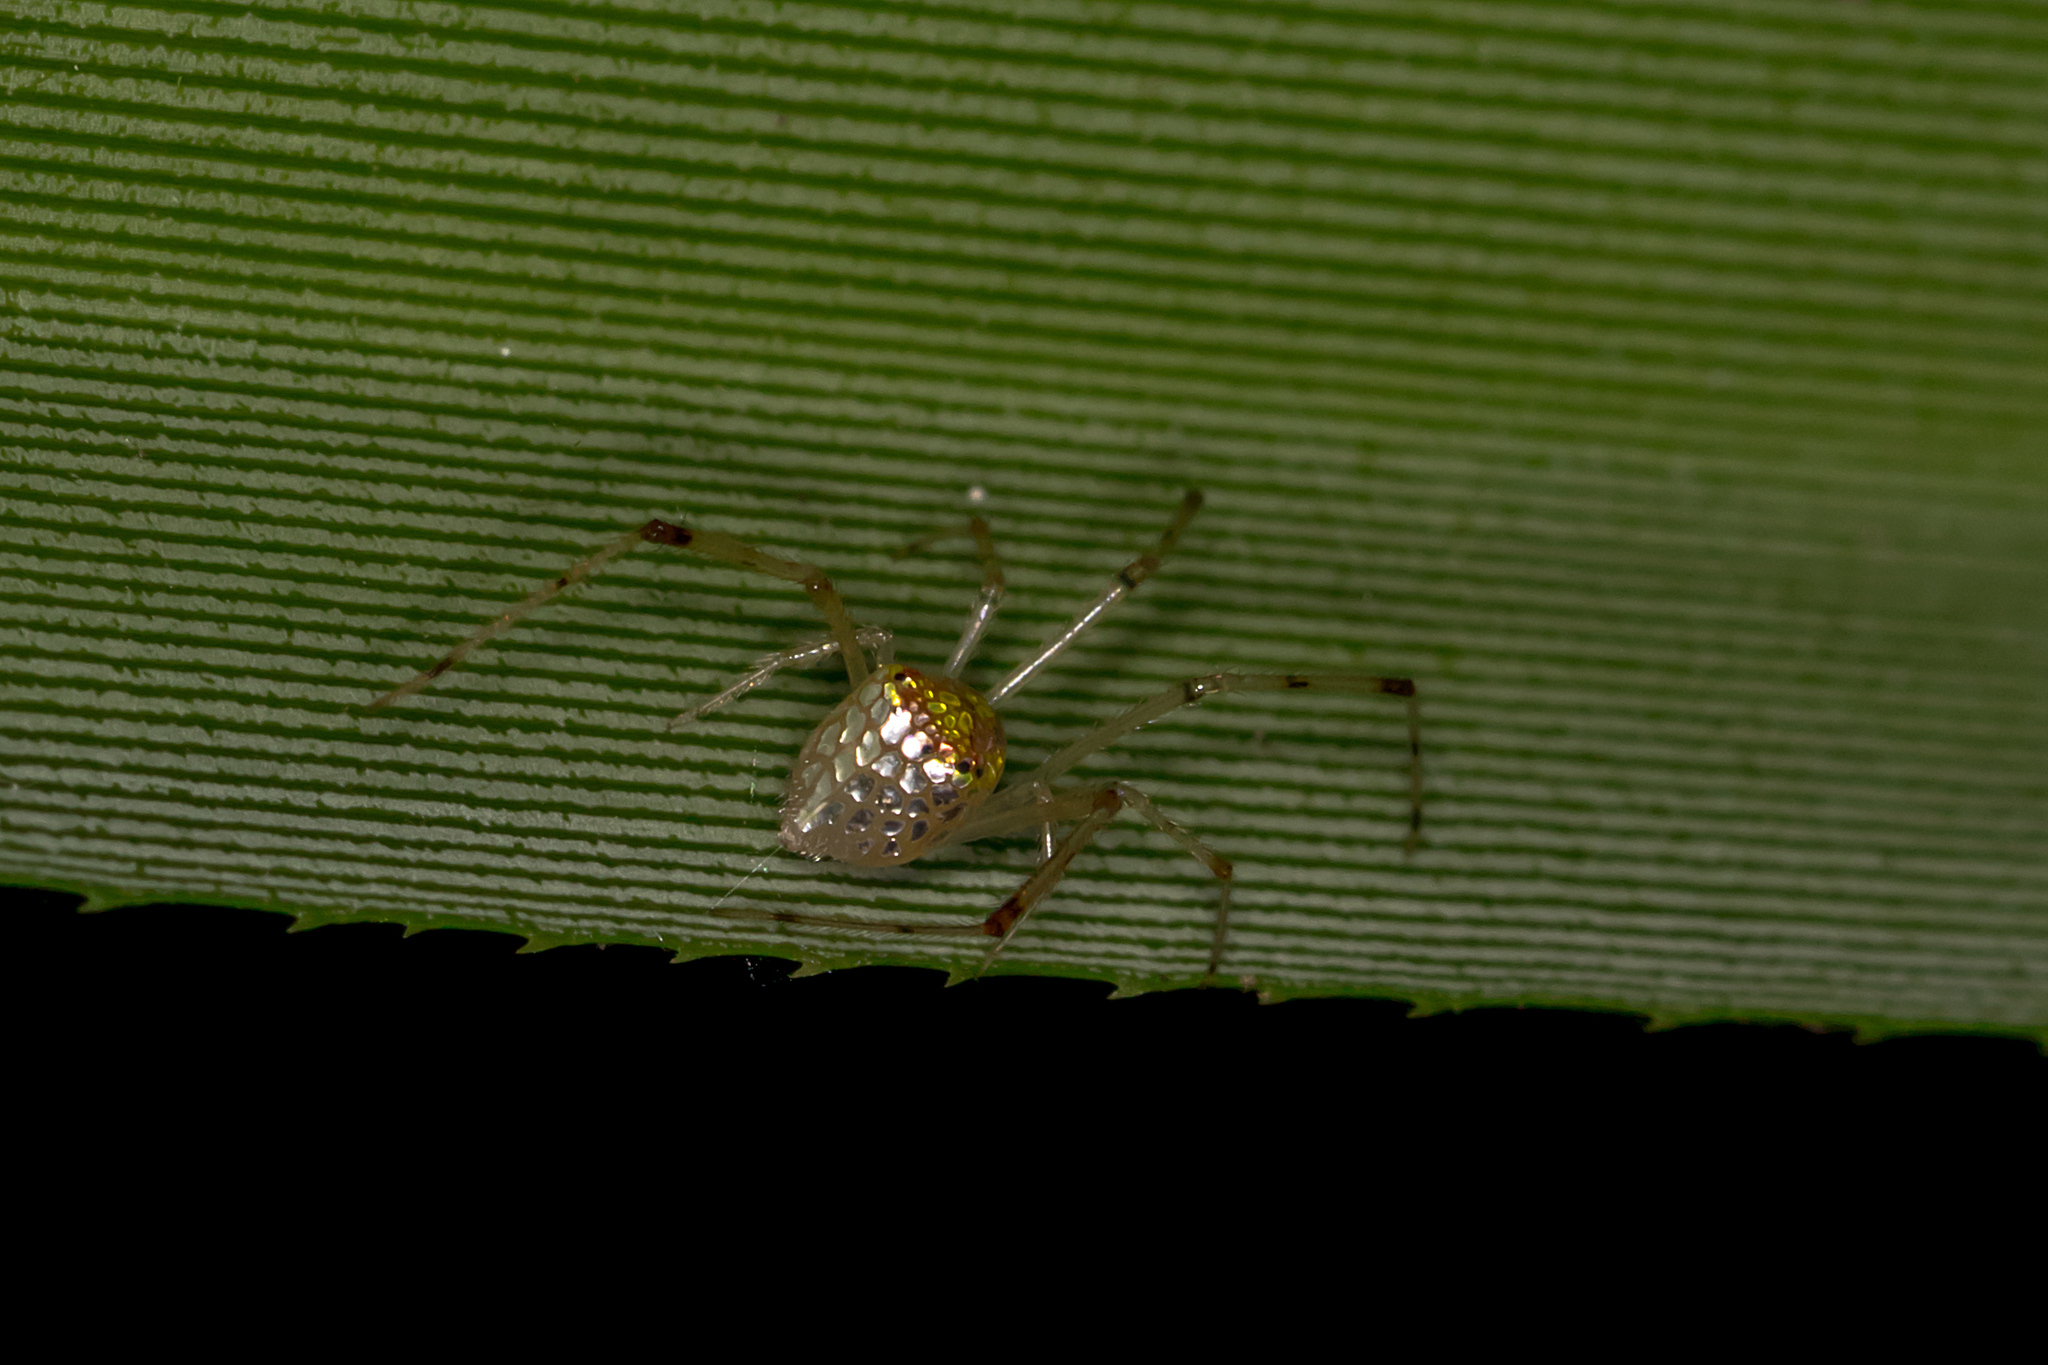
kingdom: Animalia
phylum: Arthropoda
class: Arachnida
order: Araneae
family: Theridiidae
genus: Thwaitesia
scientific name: Thwaitesia nigronodosa
